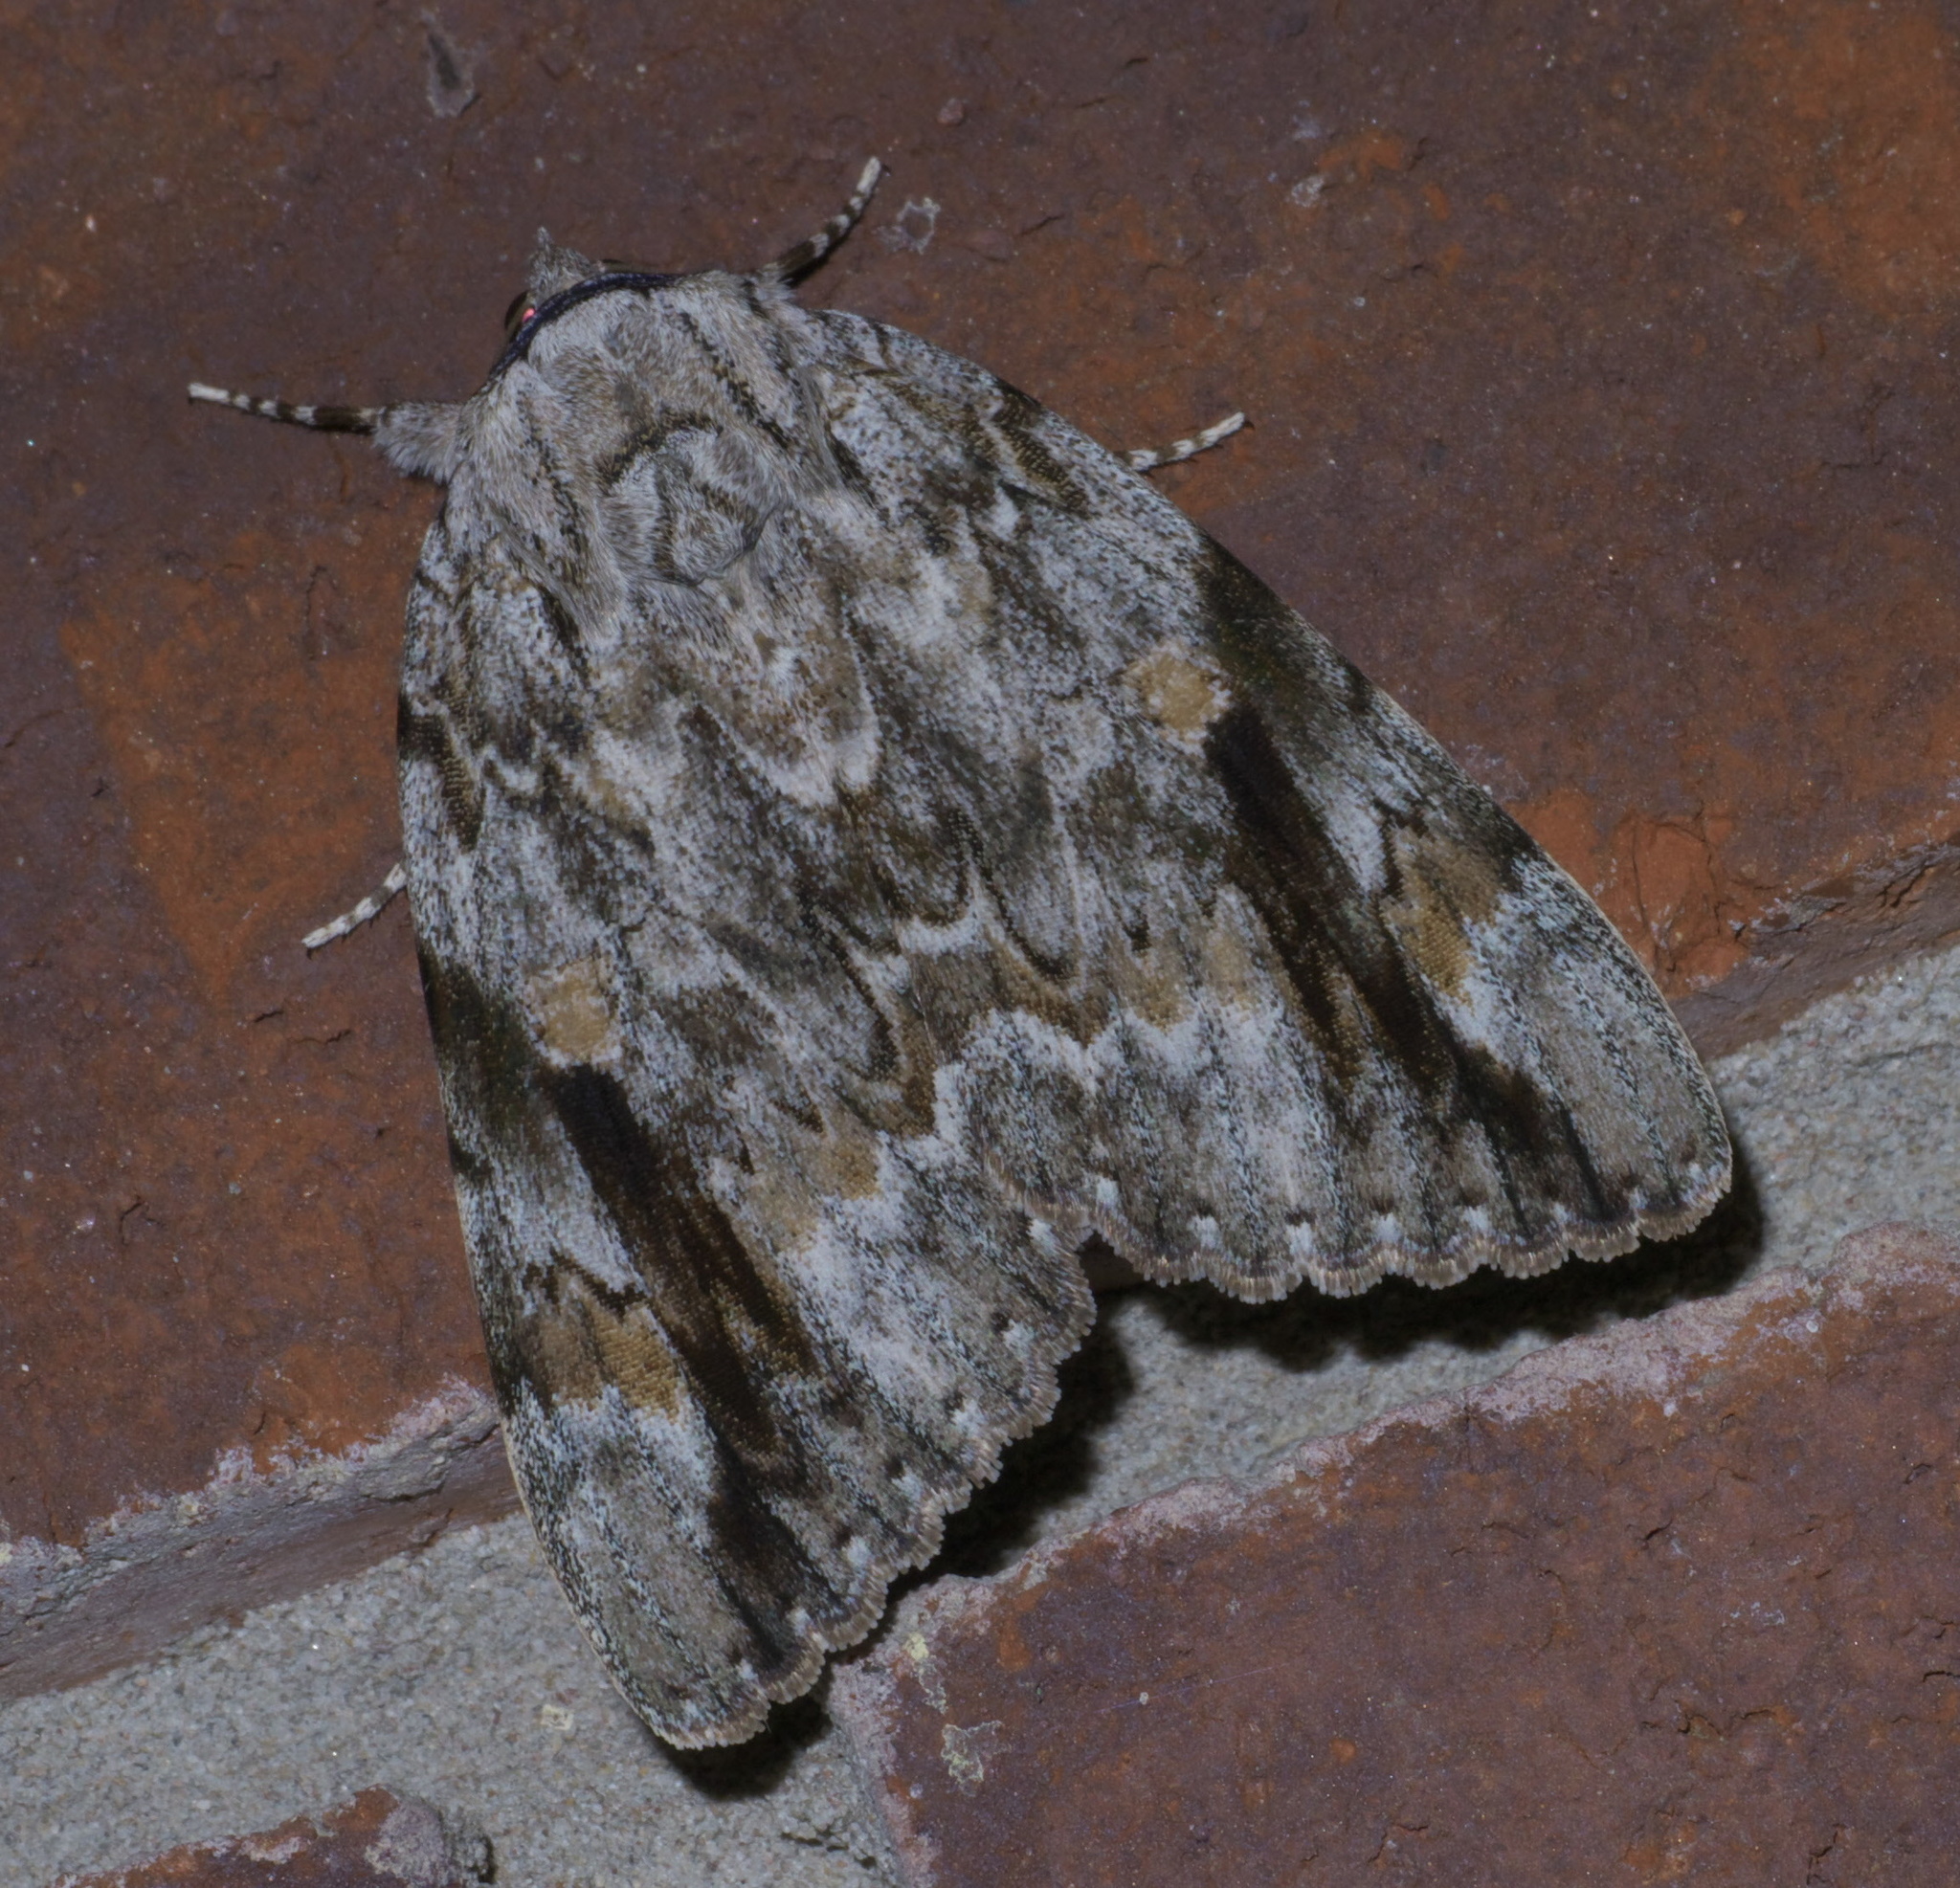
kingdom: Animalia
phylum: Arthropoda
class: Insecta
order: Lepidoptera
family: Erebidae
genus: Catocala
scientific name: Catocala maestosa
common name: Sad underwing
